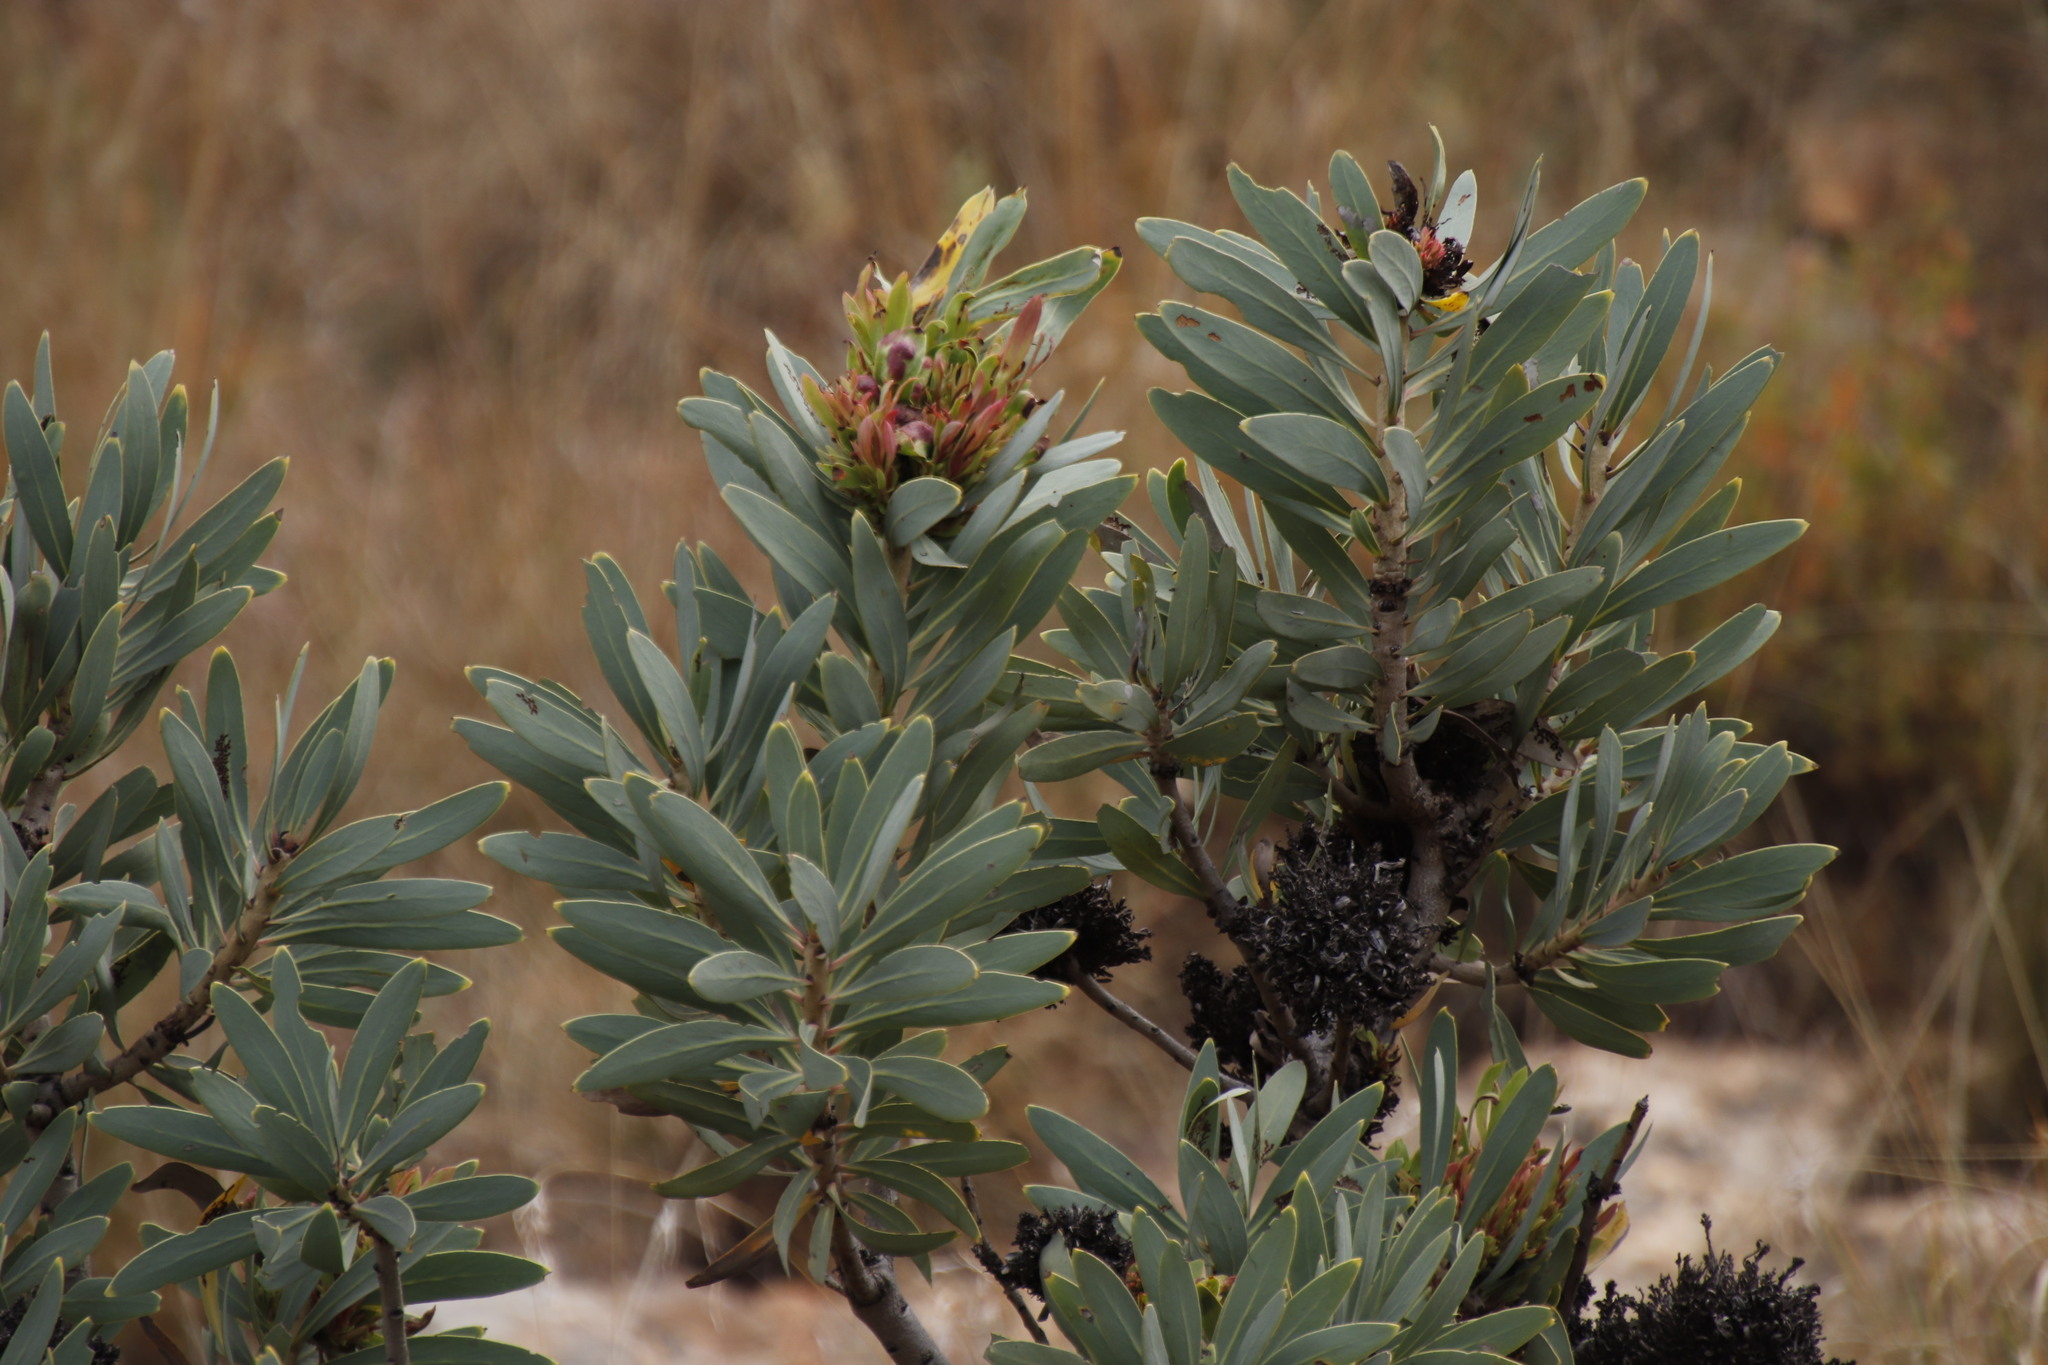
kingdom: Bacteria
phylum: Firmicutes
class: Bacilli
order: Acholeplasmatales
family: Acholeplasmataceae
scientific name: Acholeplasmataceae
